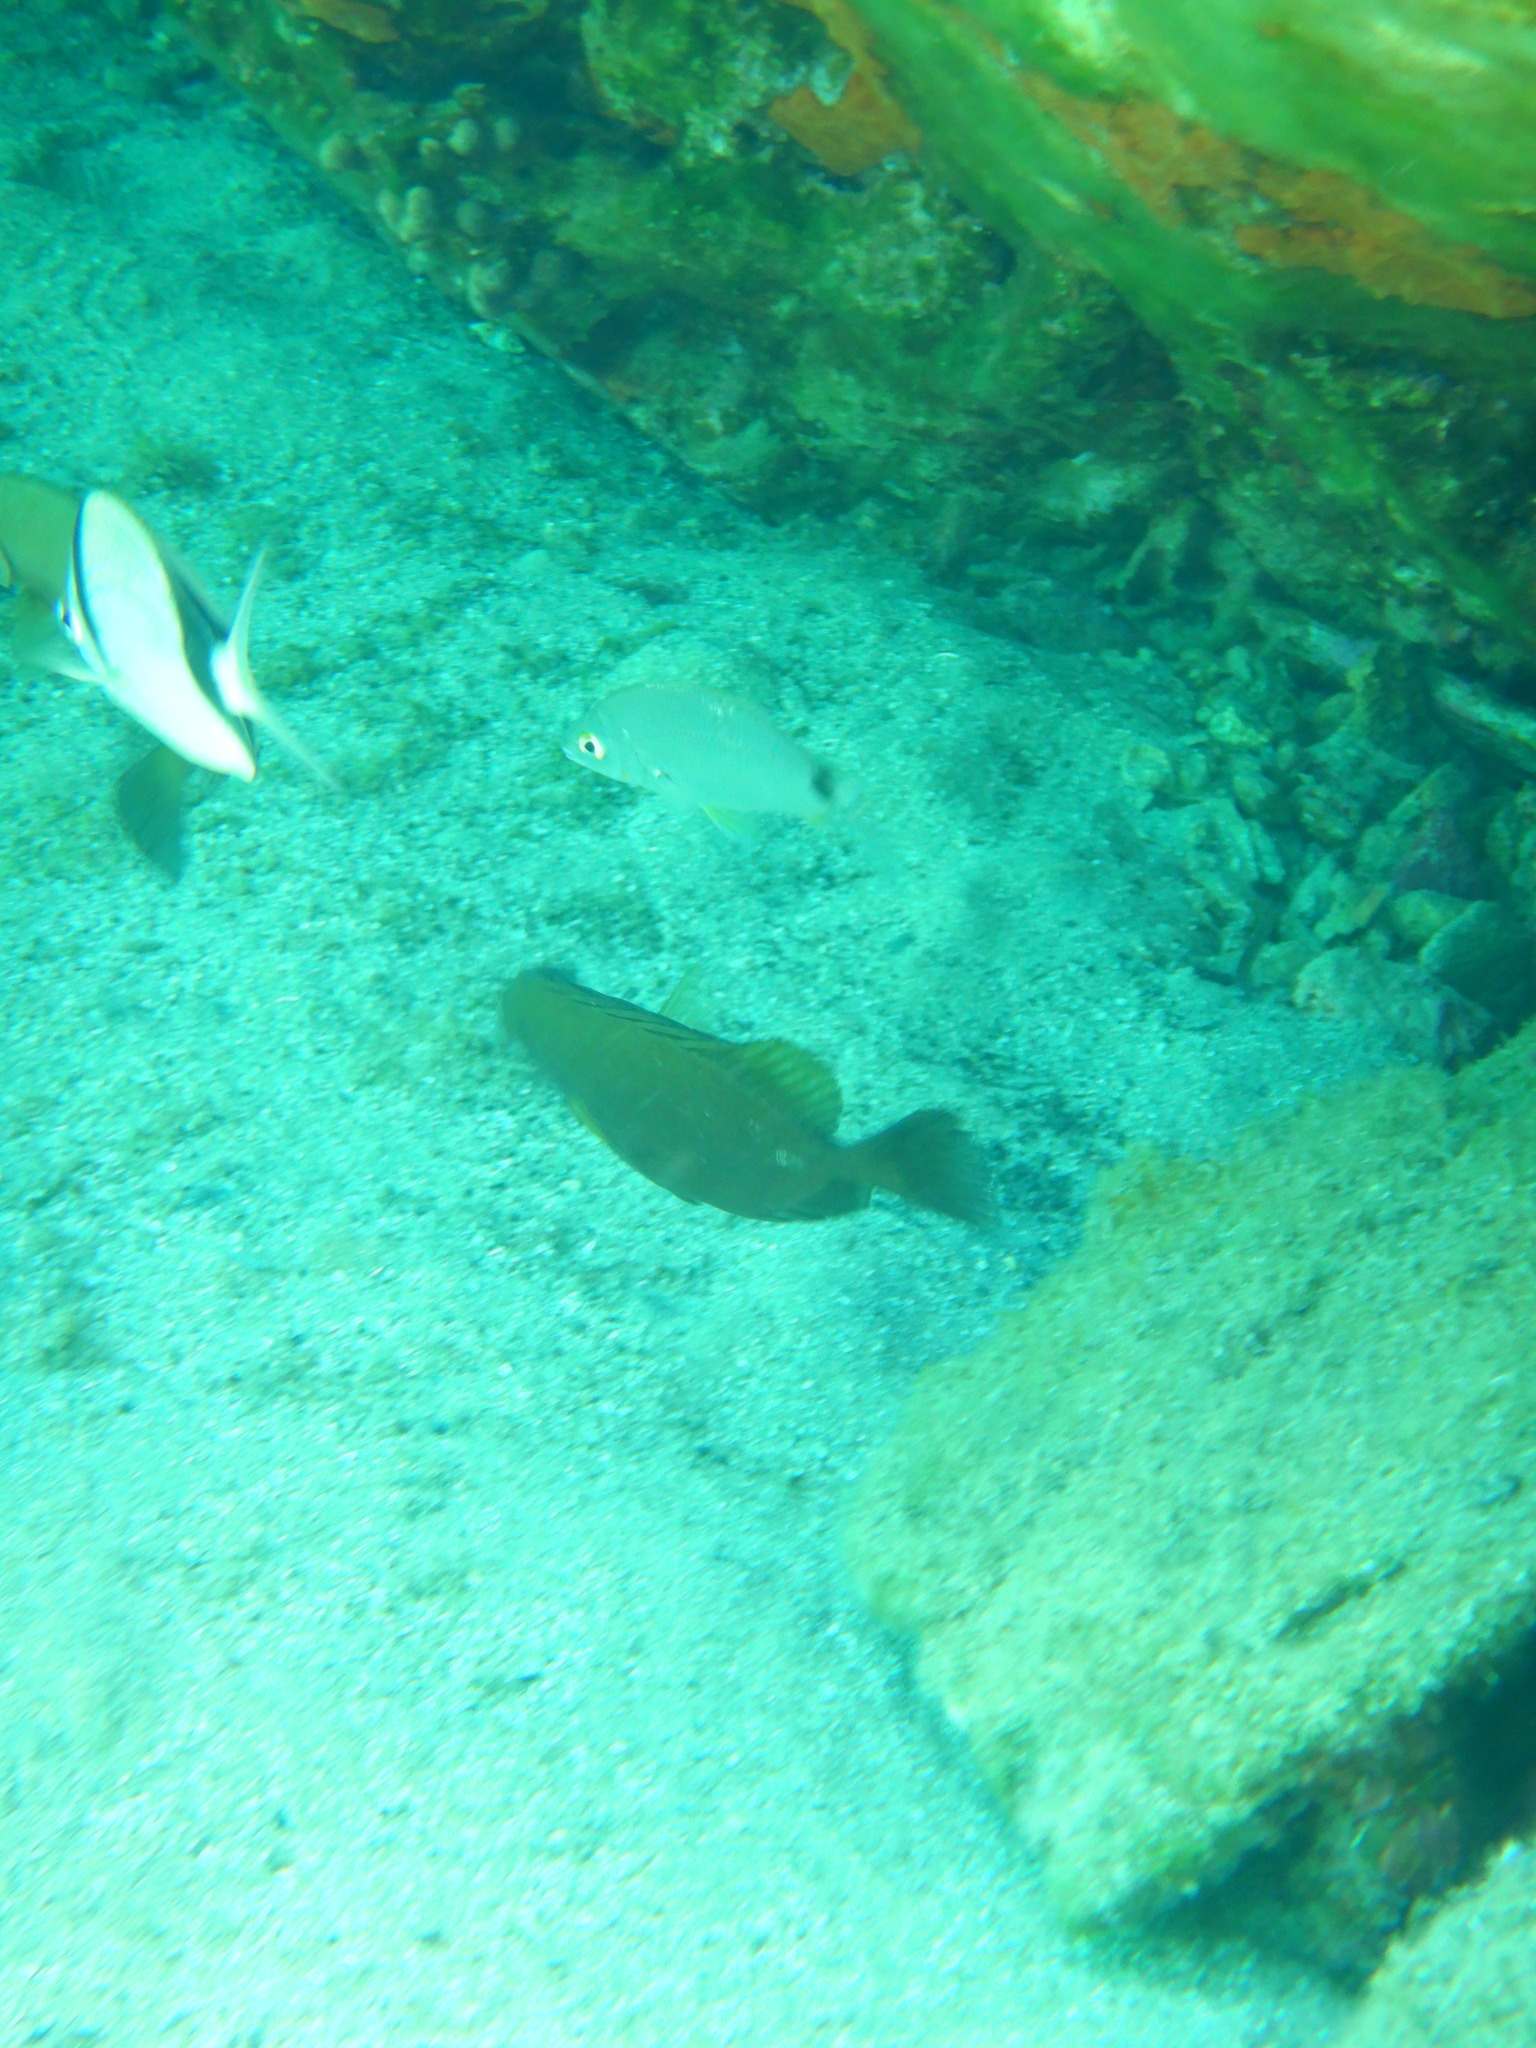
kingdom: Animalia
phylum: Chordata
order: Perciformes
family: Siganidae
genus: Siganus
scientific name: Siganus luridus
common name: Dusky spinefoot
